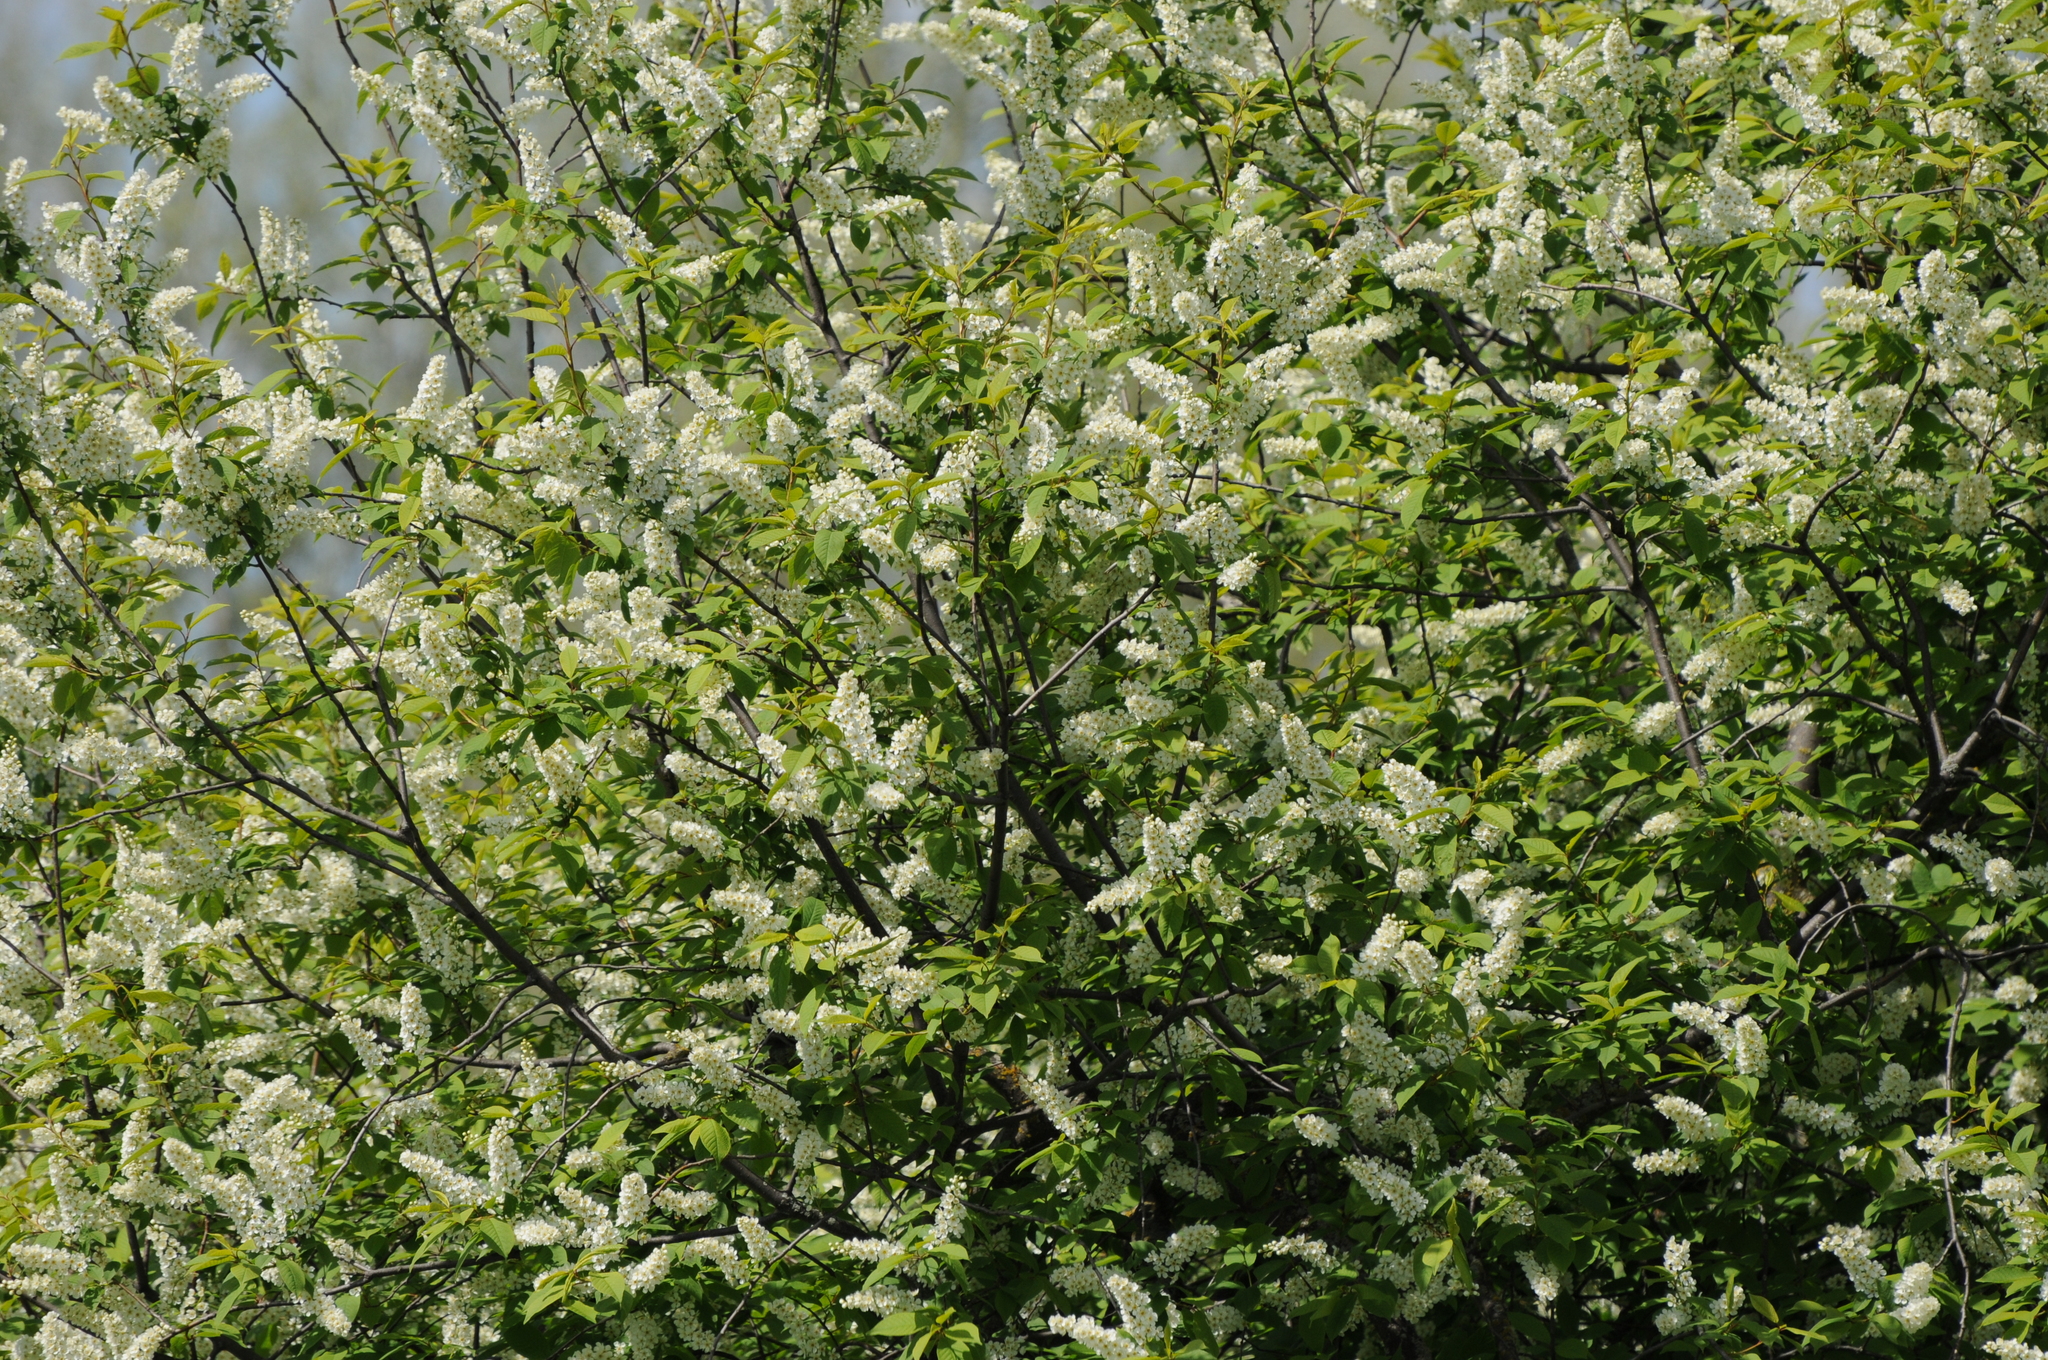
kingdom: Plantae
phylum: Tracheophyta
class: Magnoliopsida
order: Rosales
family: Rosaceae
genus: Prunus
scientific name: Prunus padus
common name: Bird cherry
